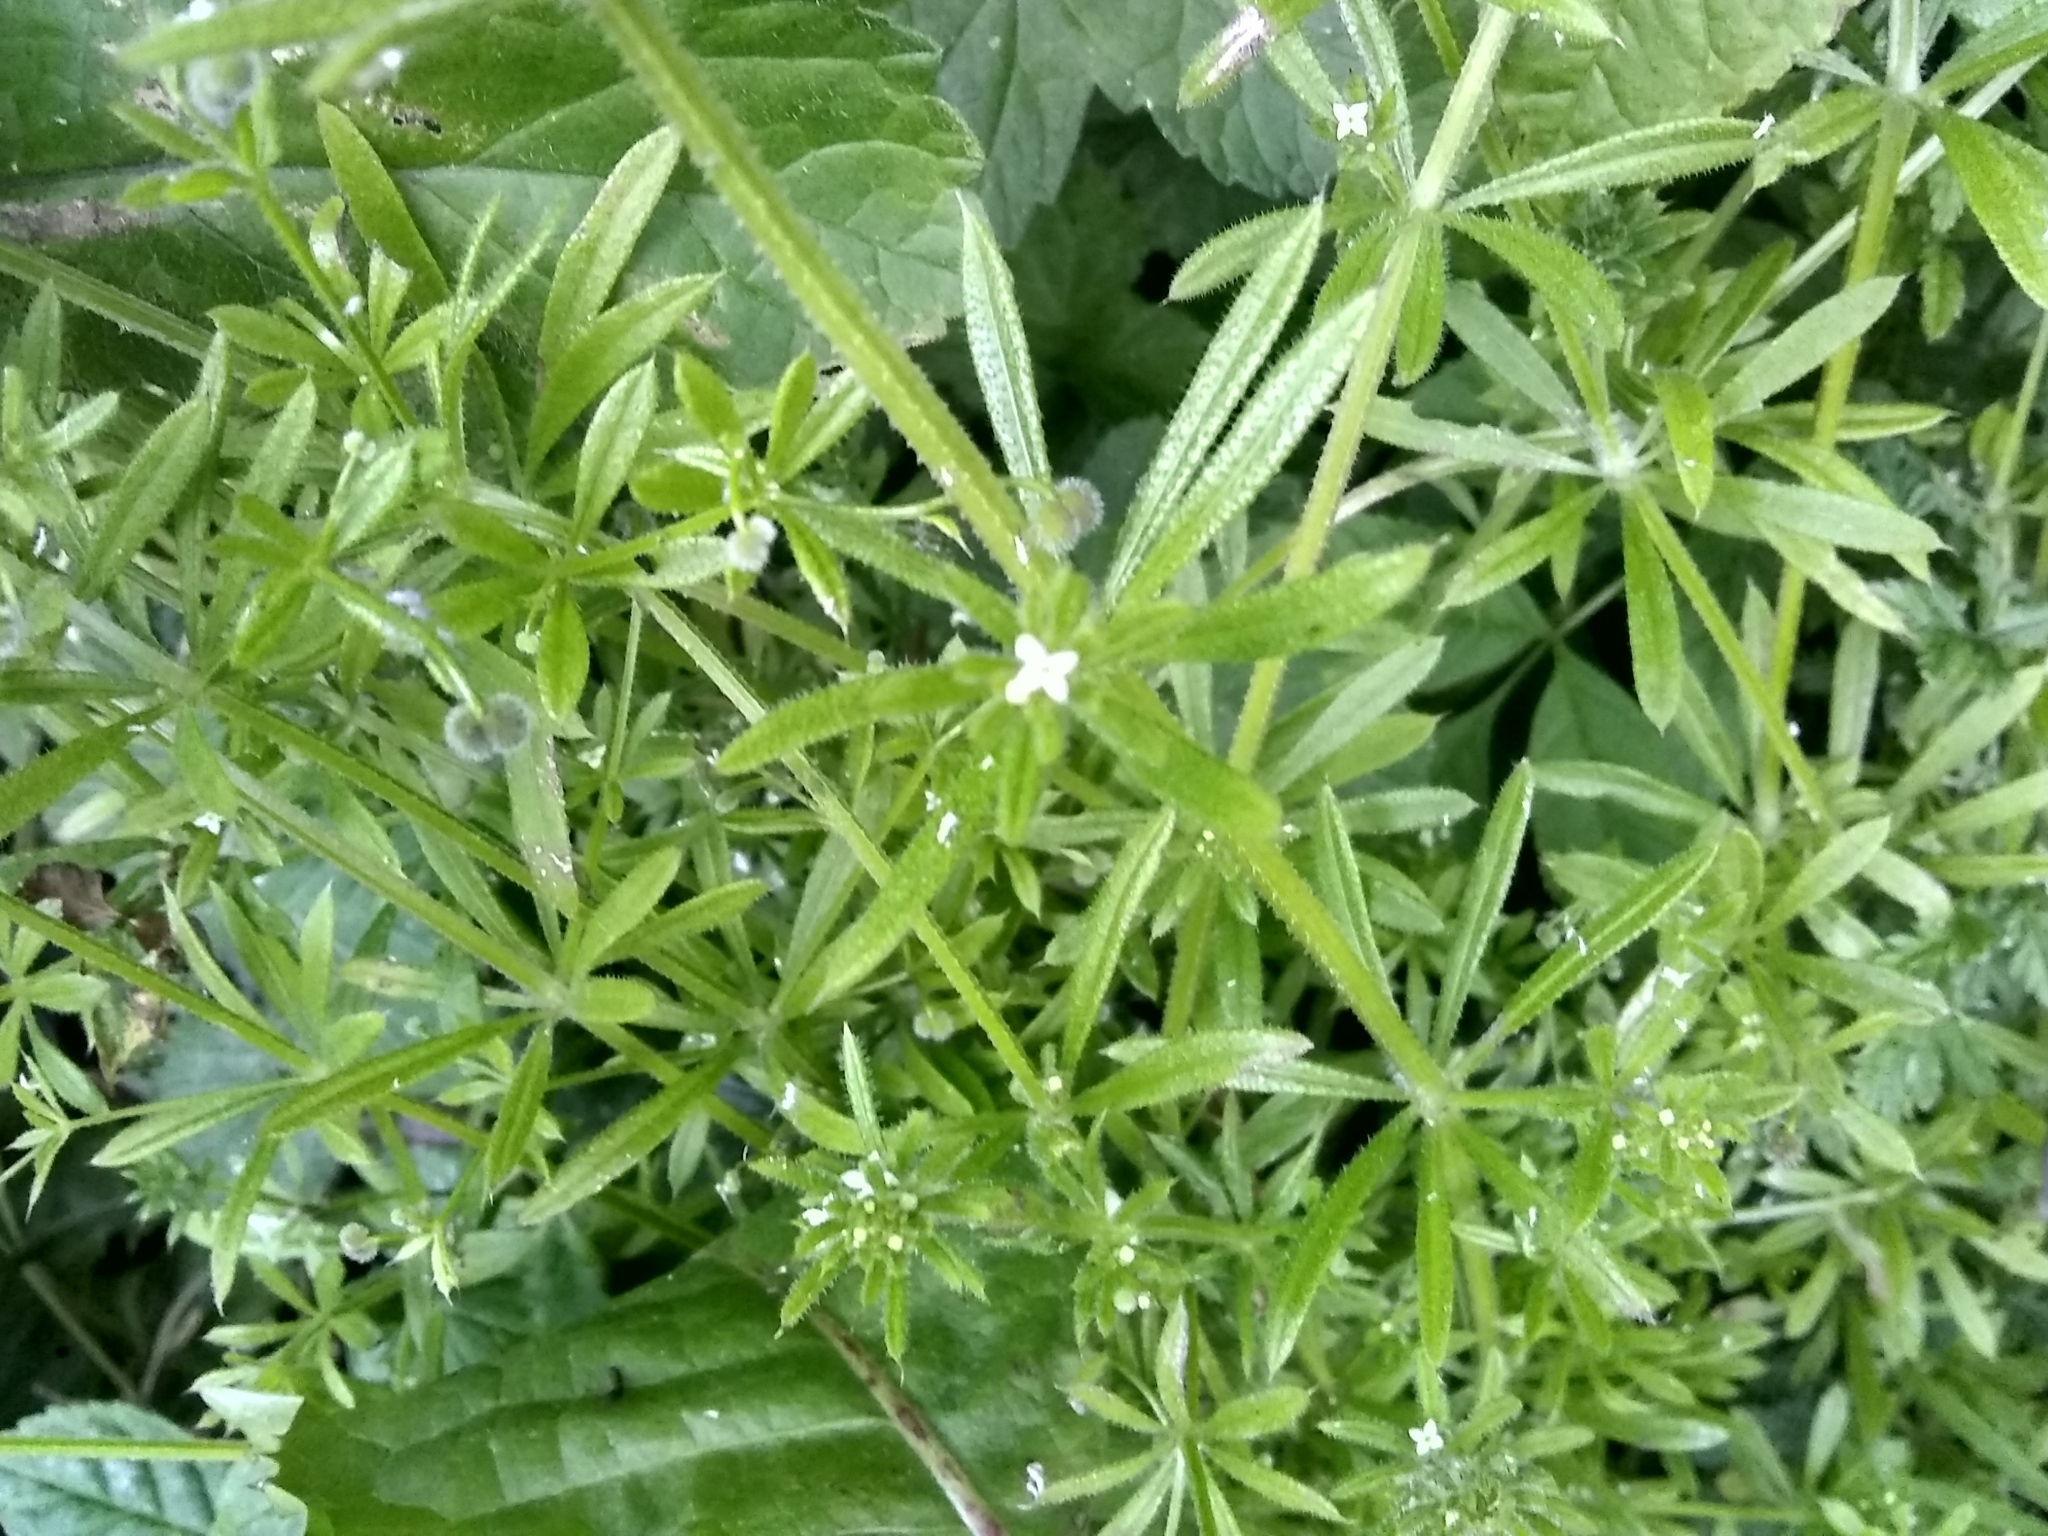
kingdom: Plantae
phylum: Tracheophyta
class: Magnoliopsida
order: Gentianales
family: Rubiaceae
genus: Galium
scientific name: Galium aparine
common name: Cleavers
